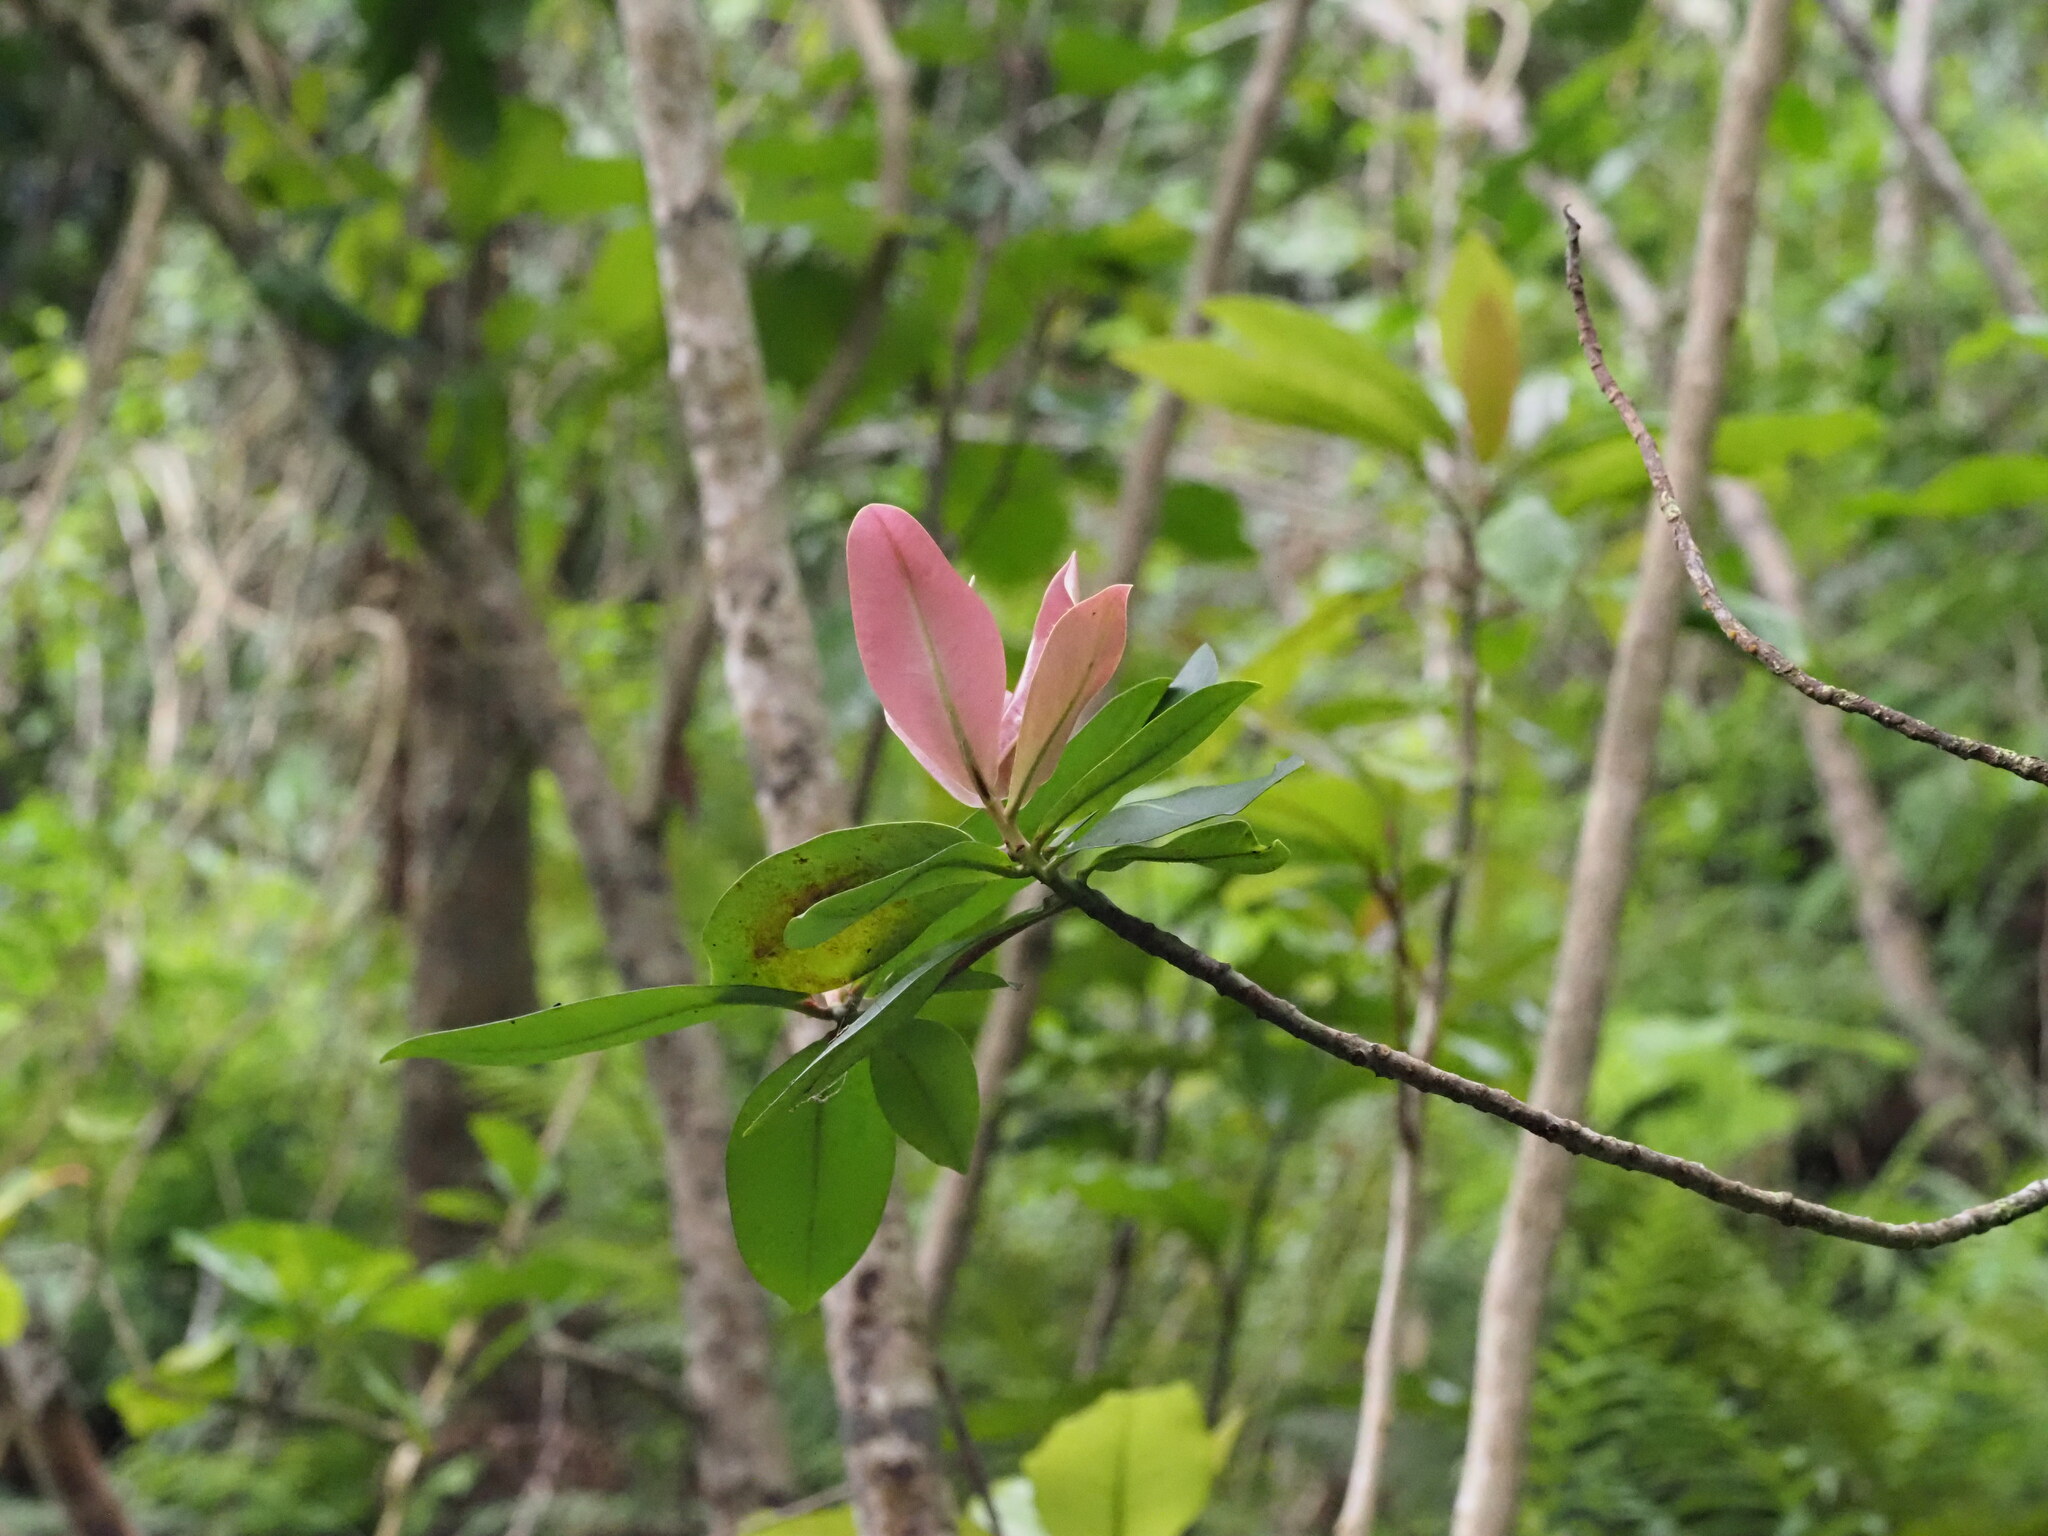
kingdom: Plantae
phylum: Tracheophyta
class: Magnoliopsida
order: Ericales
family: Primulaceae
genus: Myrsine
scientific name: Myrsine lessertiana
